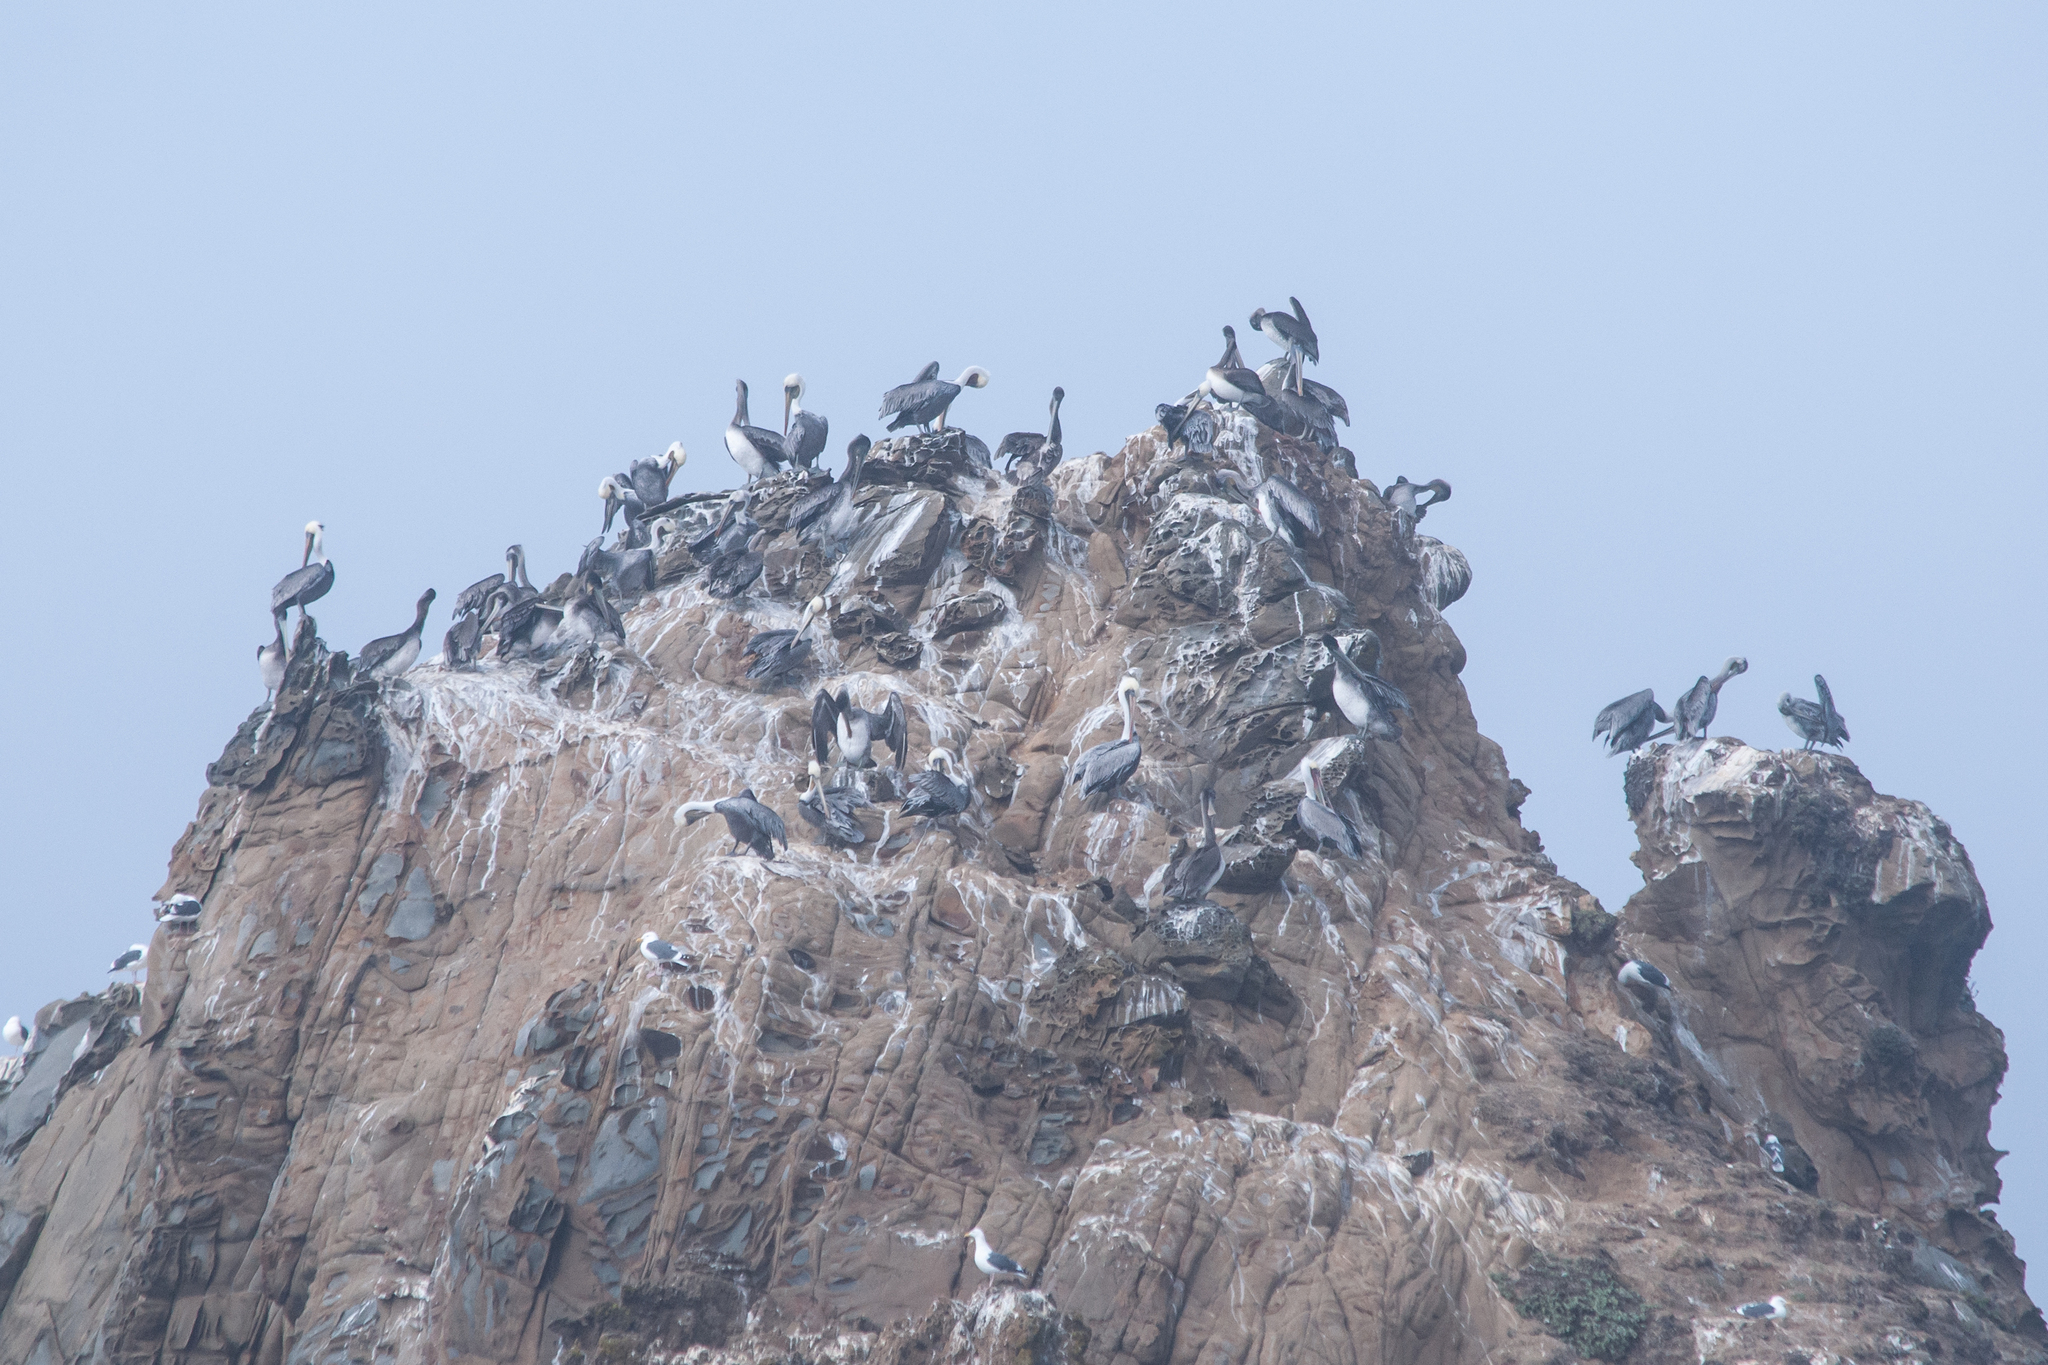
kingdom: Animalia
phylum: Chordata
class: Aves
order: Pelecaniformes
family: Pelecanidae
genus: Pelecanus
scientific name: Pelecanus occidentalis
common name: Brown pelican
